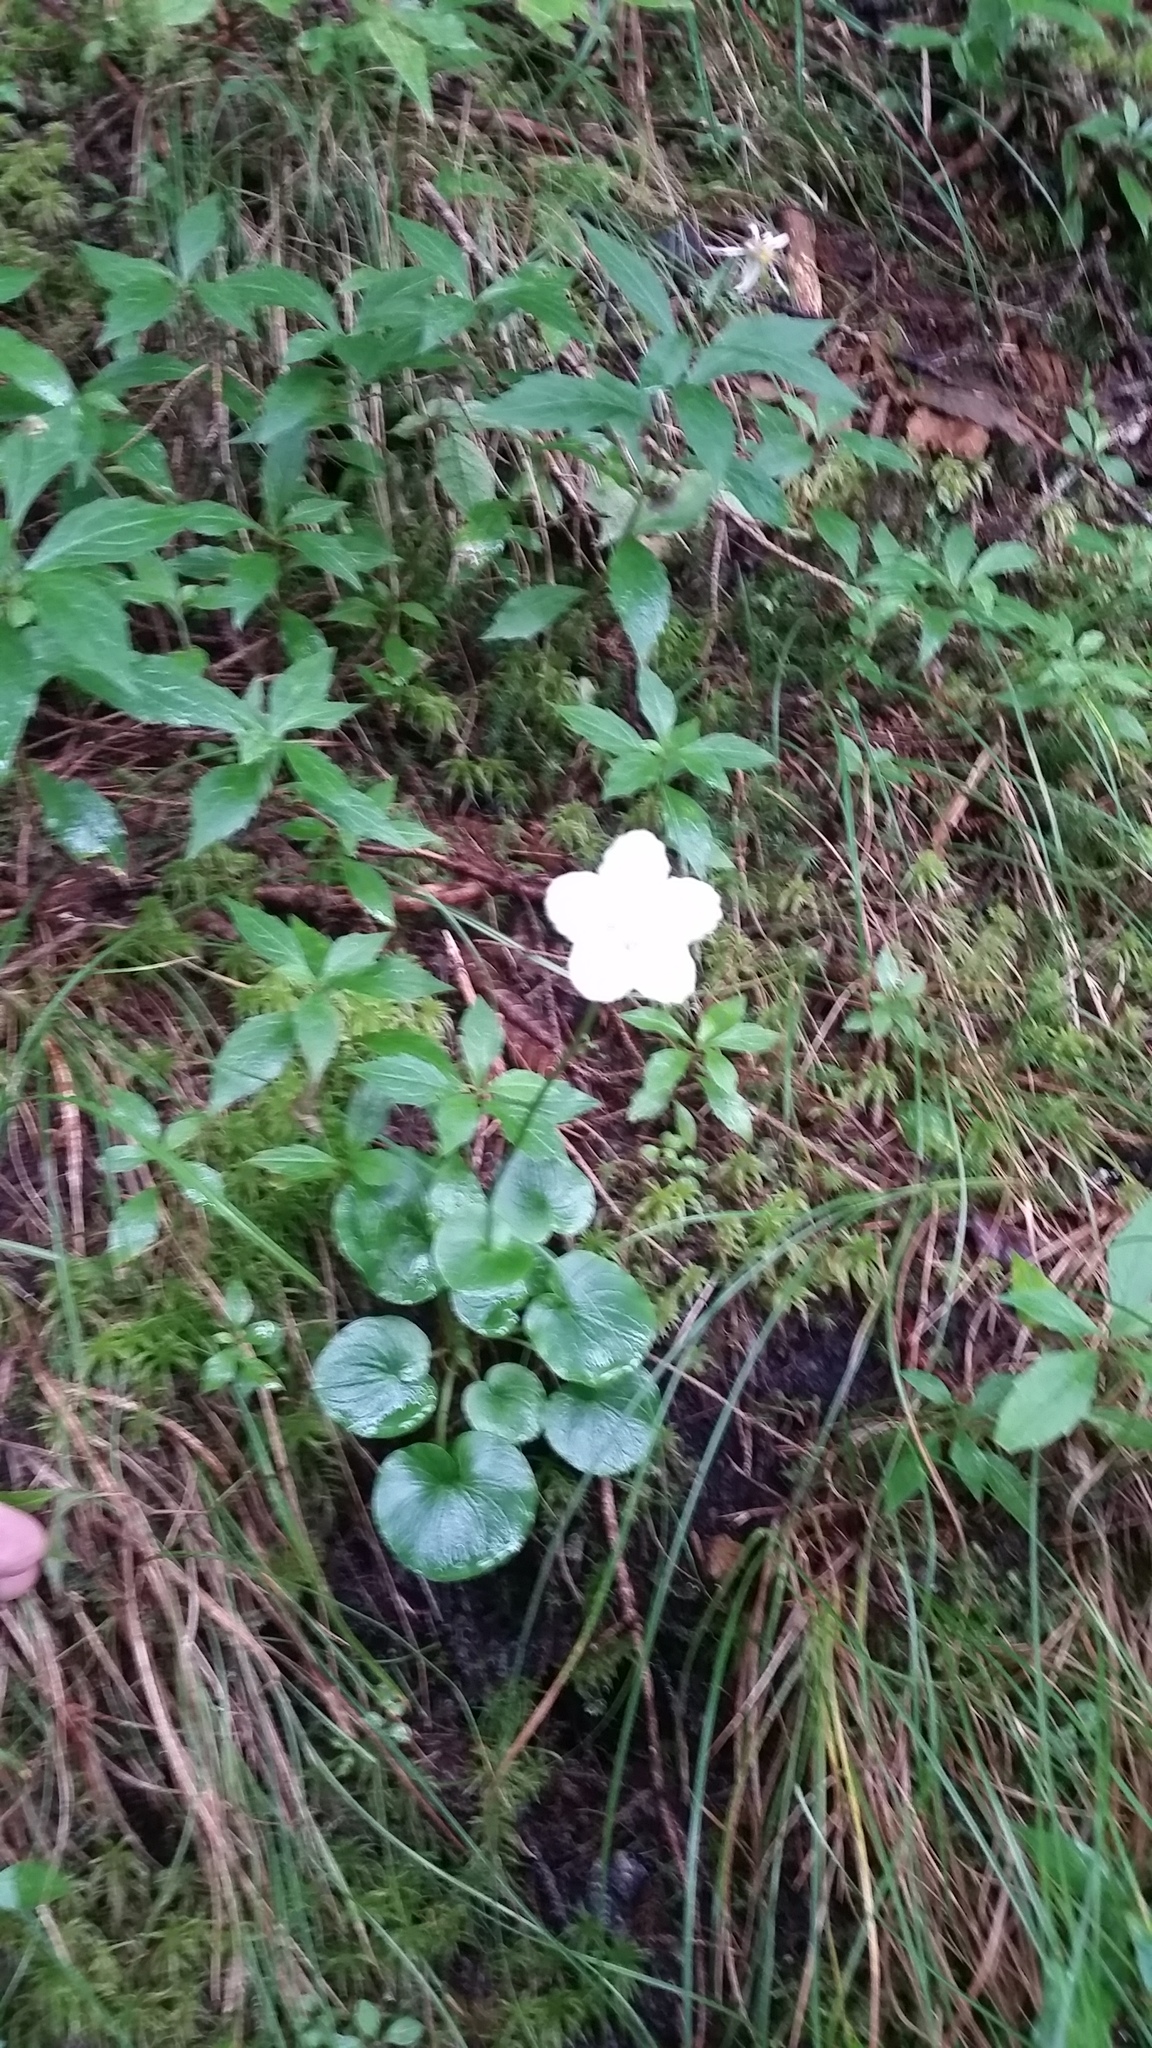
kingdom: Plantae
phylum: Tracheophyta
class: Magnoliopsida
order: Celastrales
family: Parnassiaceae
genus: Parnassia
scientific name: Parnassia asarifolia
